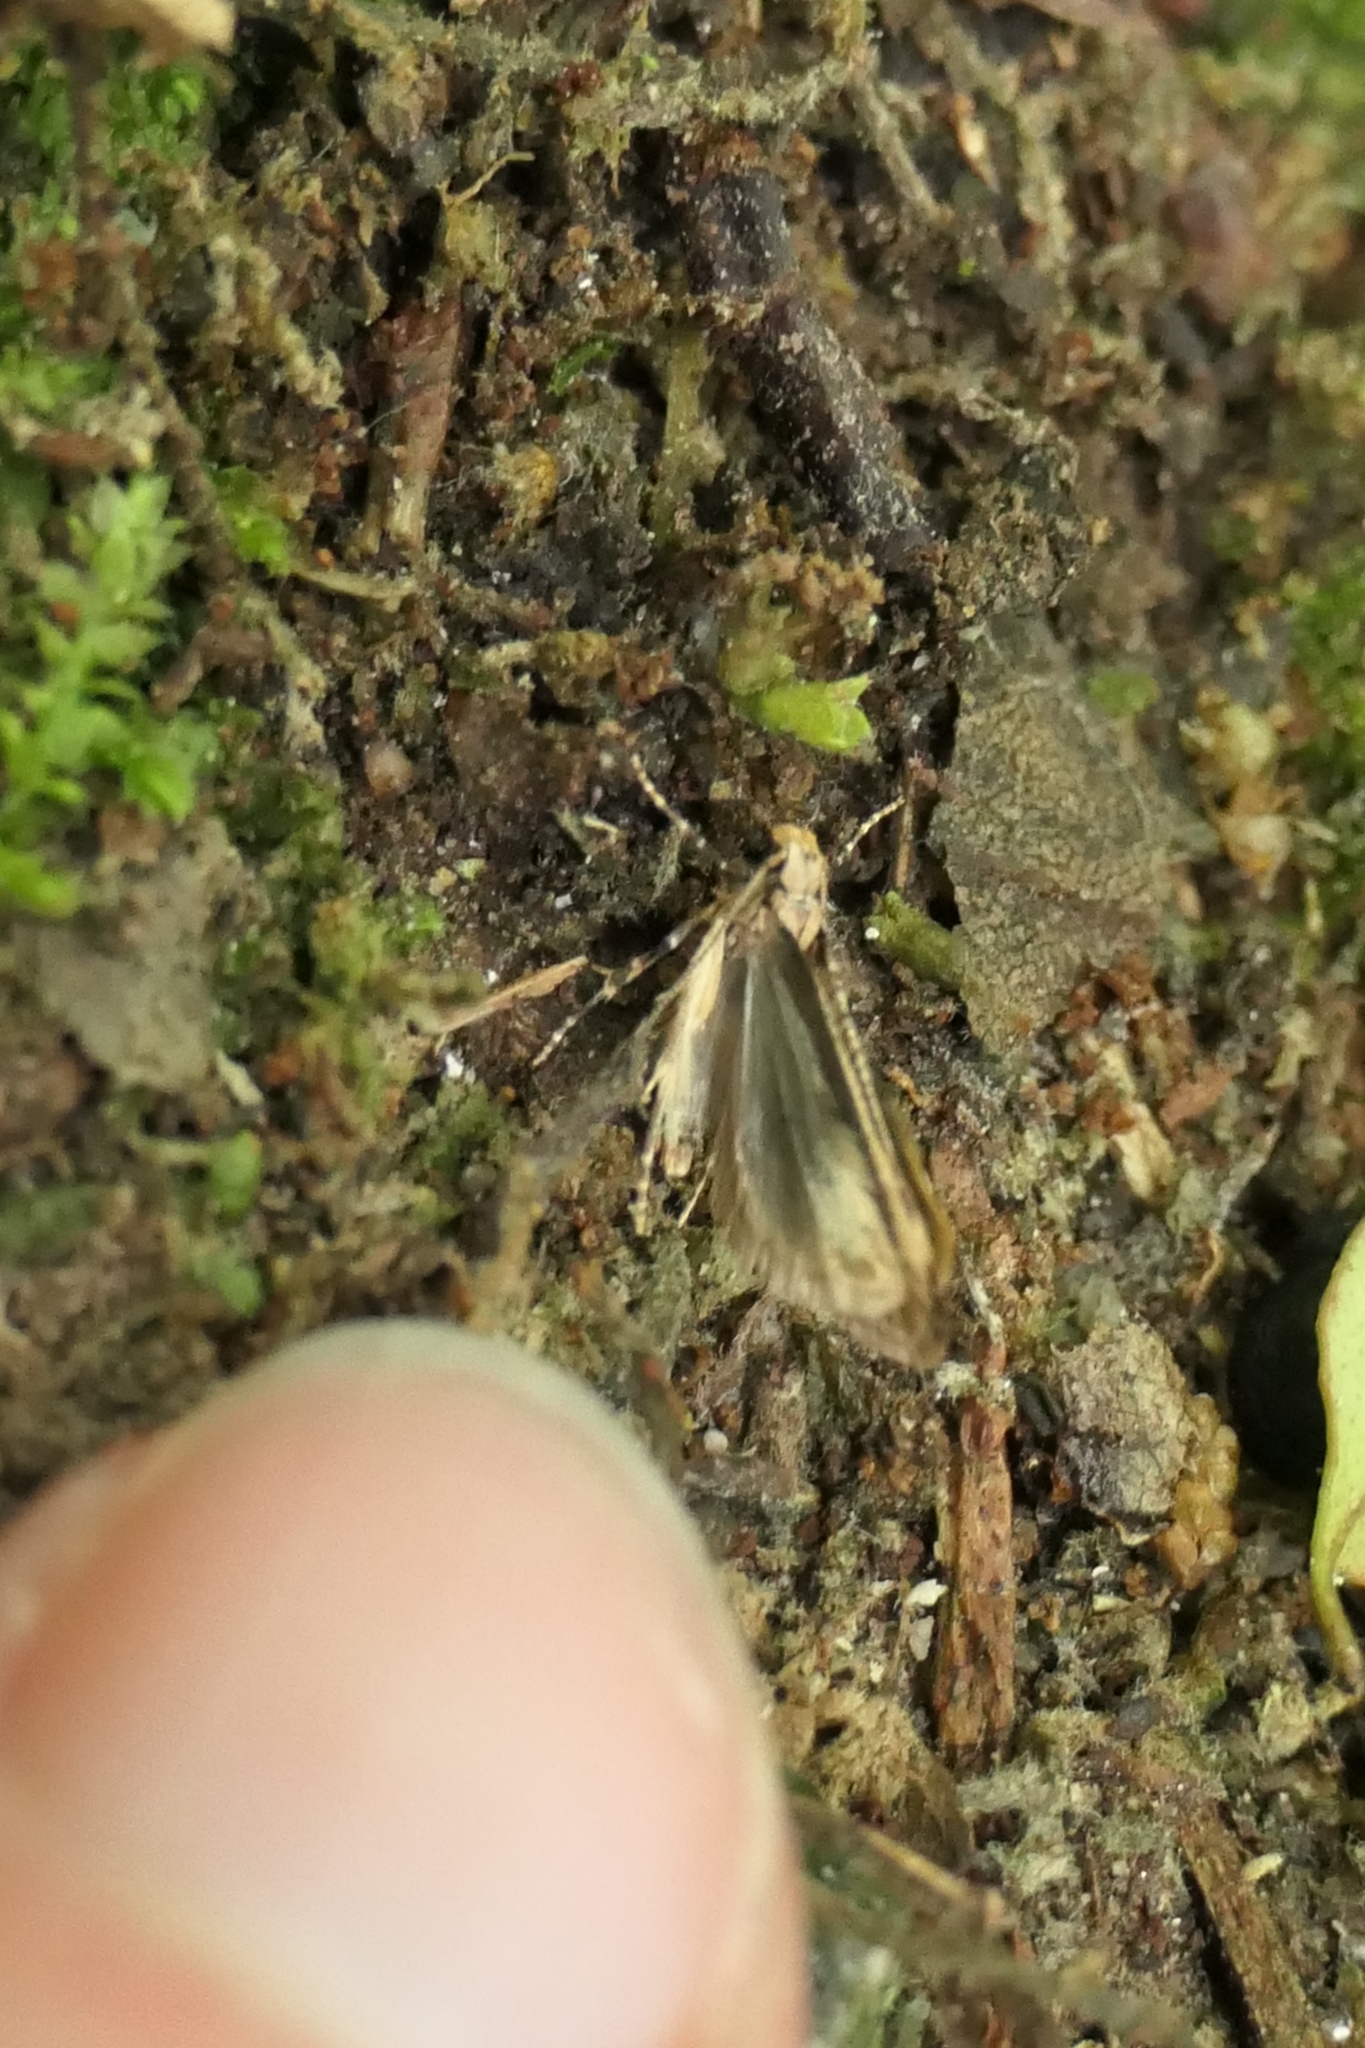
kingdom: Animalia
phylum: Arthropoda
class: Insecta
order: Lepidoptera
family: Gelechiidae
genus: Anisoplaca
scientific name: Anisoplaca acrodactyla
